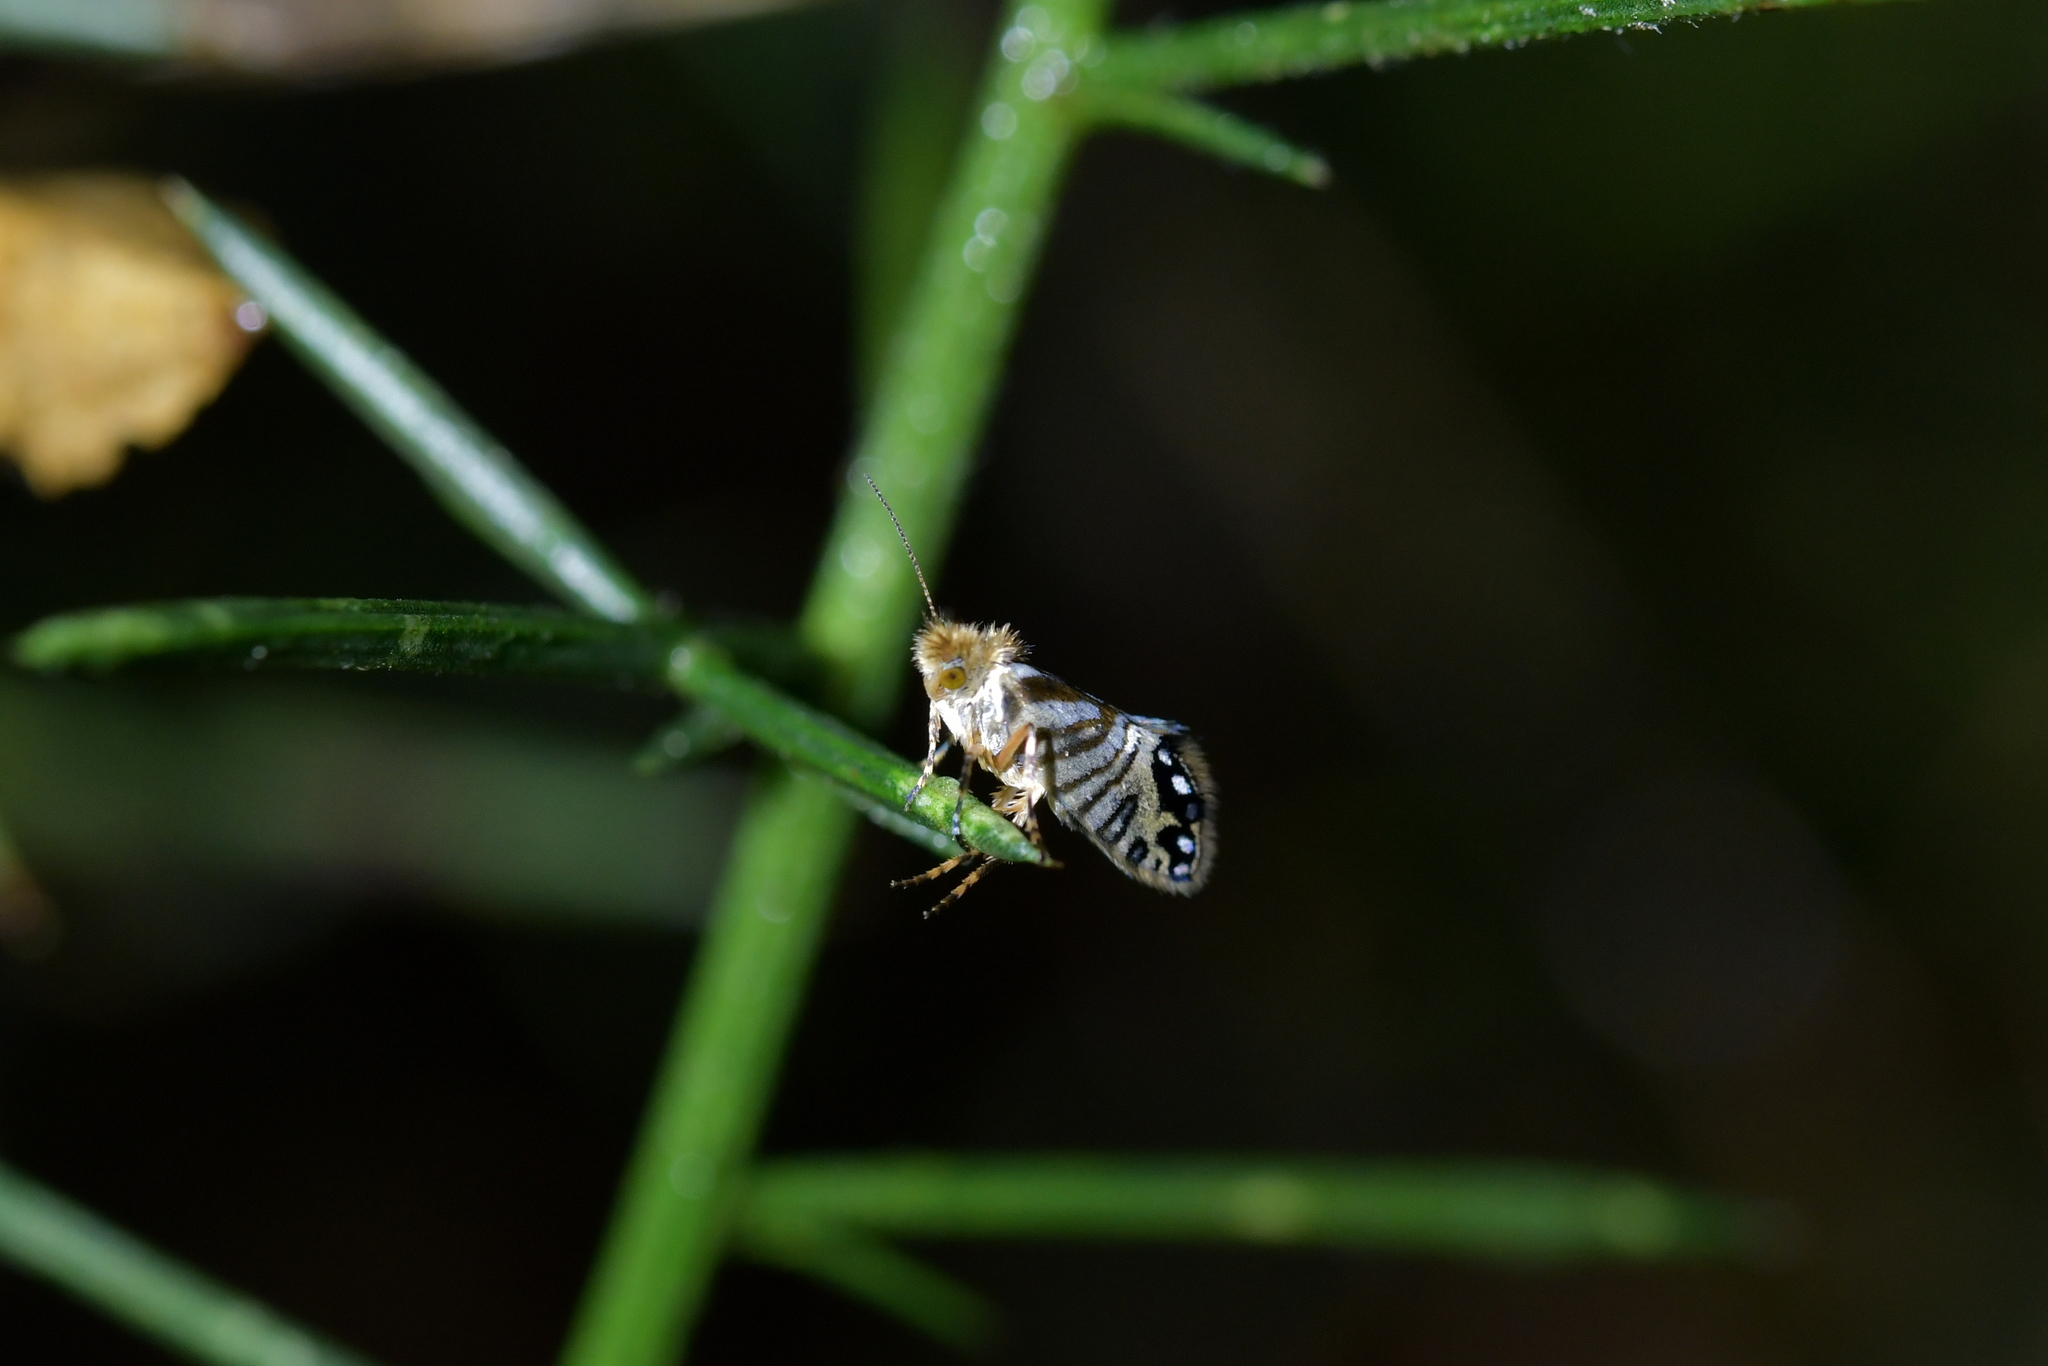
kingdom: Animalia
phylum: Arthropoda
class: Insecta
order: Lepidoptera
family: Micropterigidae
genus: Sabatinca
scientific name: Sabatinca doroxena
